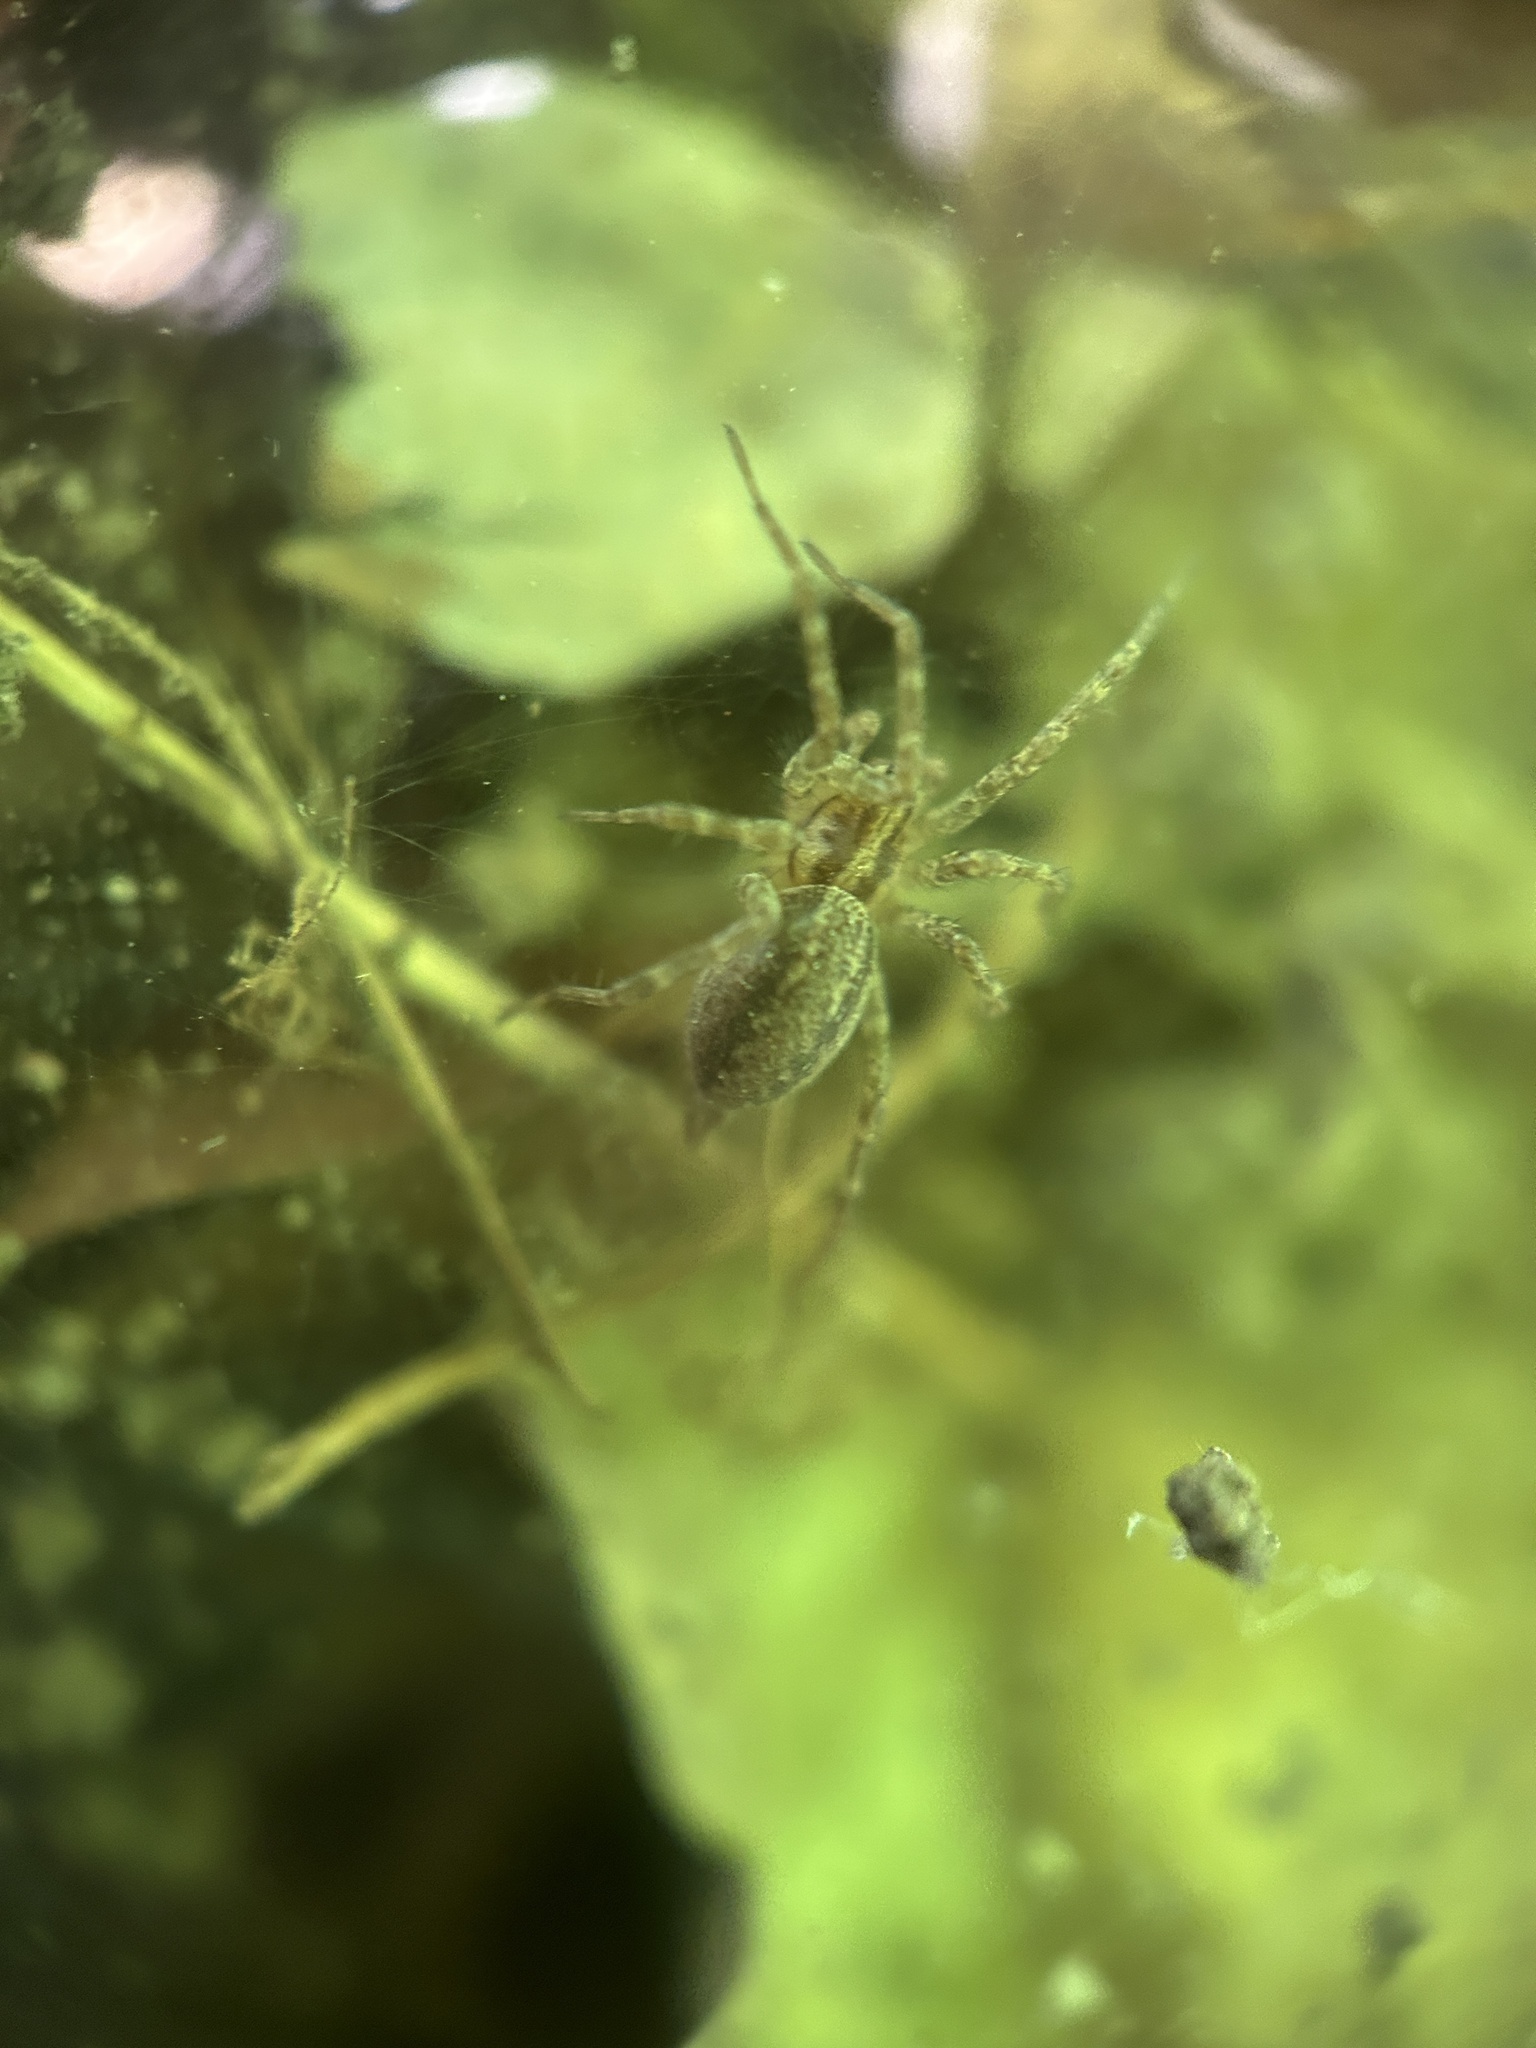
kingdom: Animalia
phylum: Arthropoda
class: Arachnida
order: Araneae
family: Agelenidae
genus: Agelenopsis
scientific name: Agelenopsis
